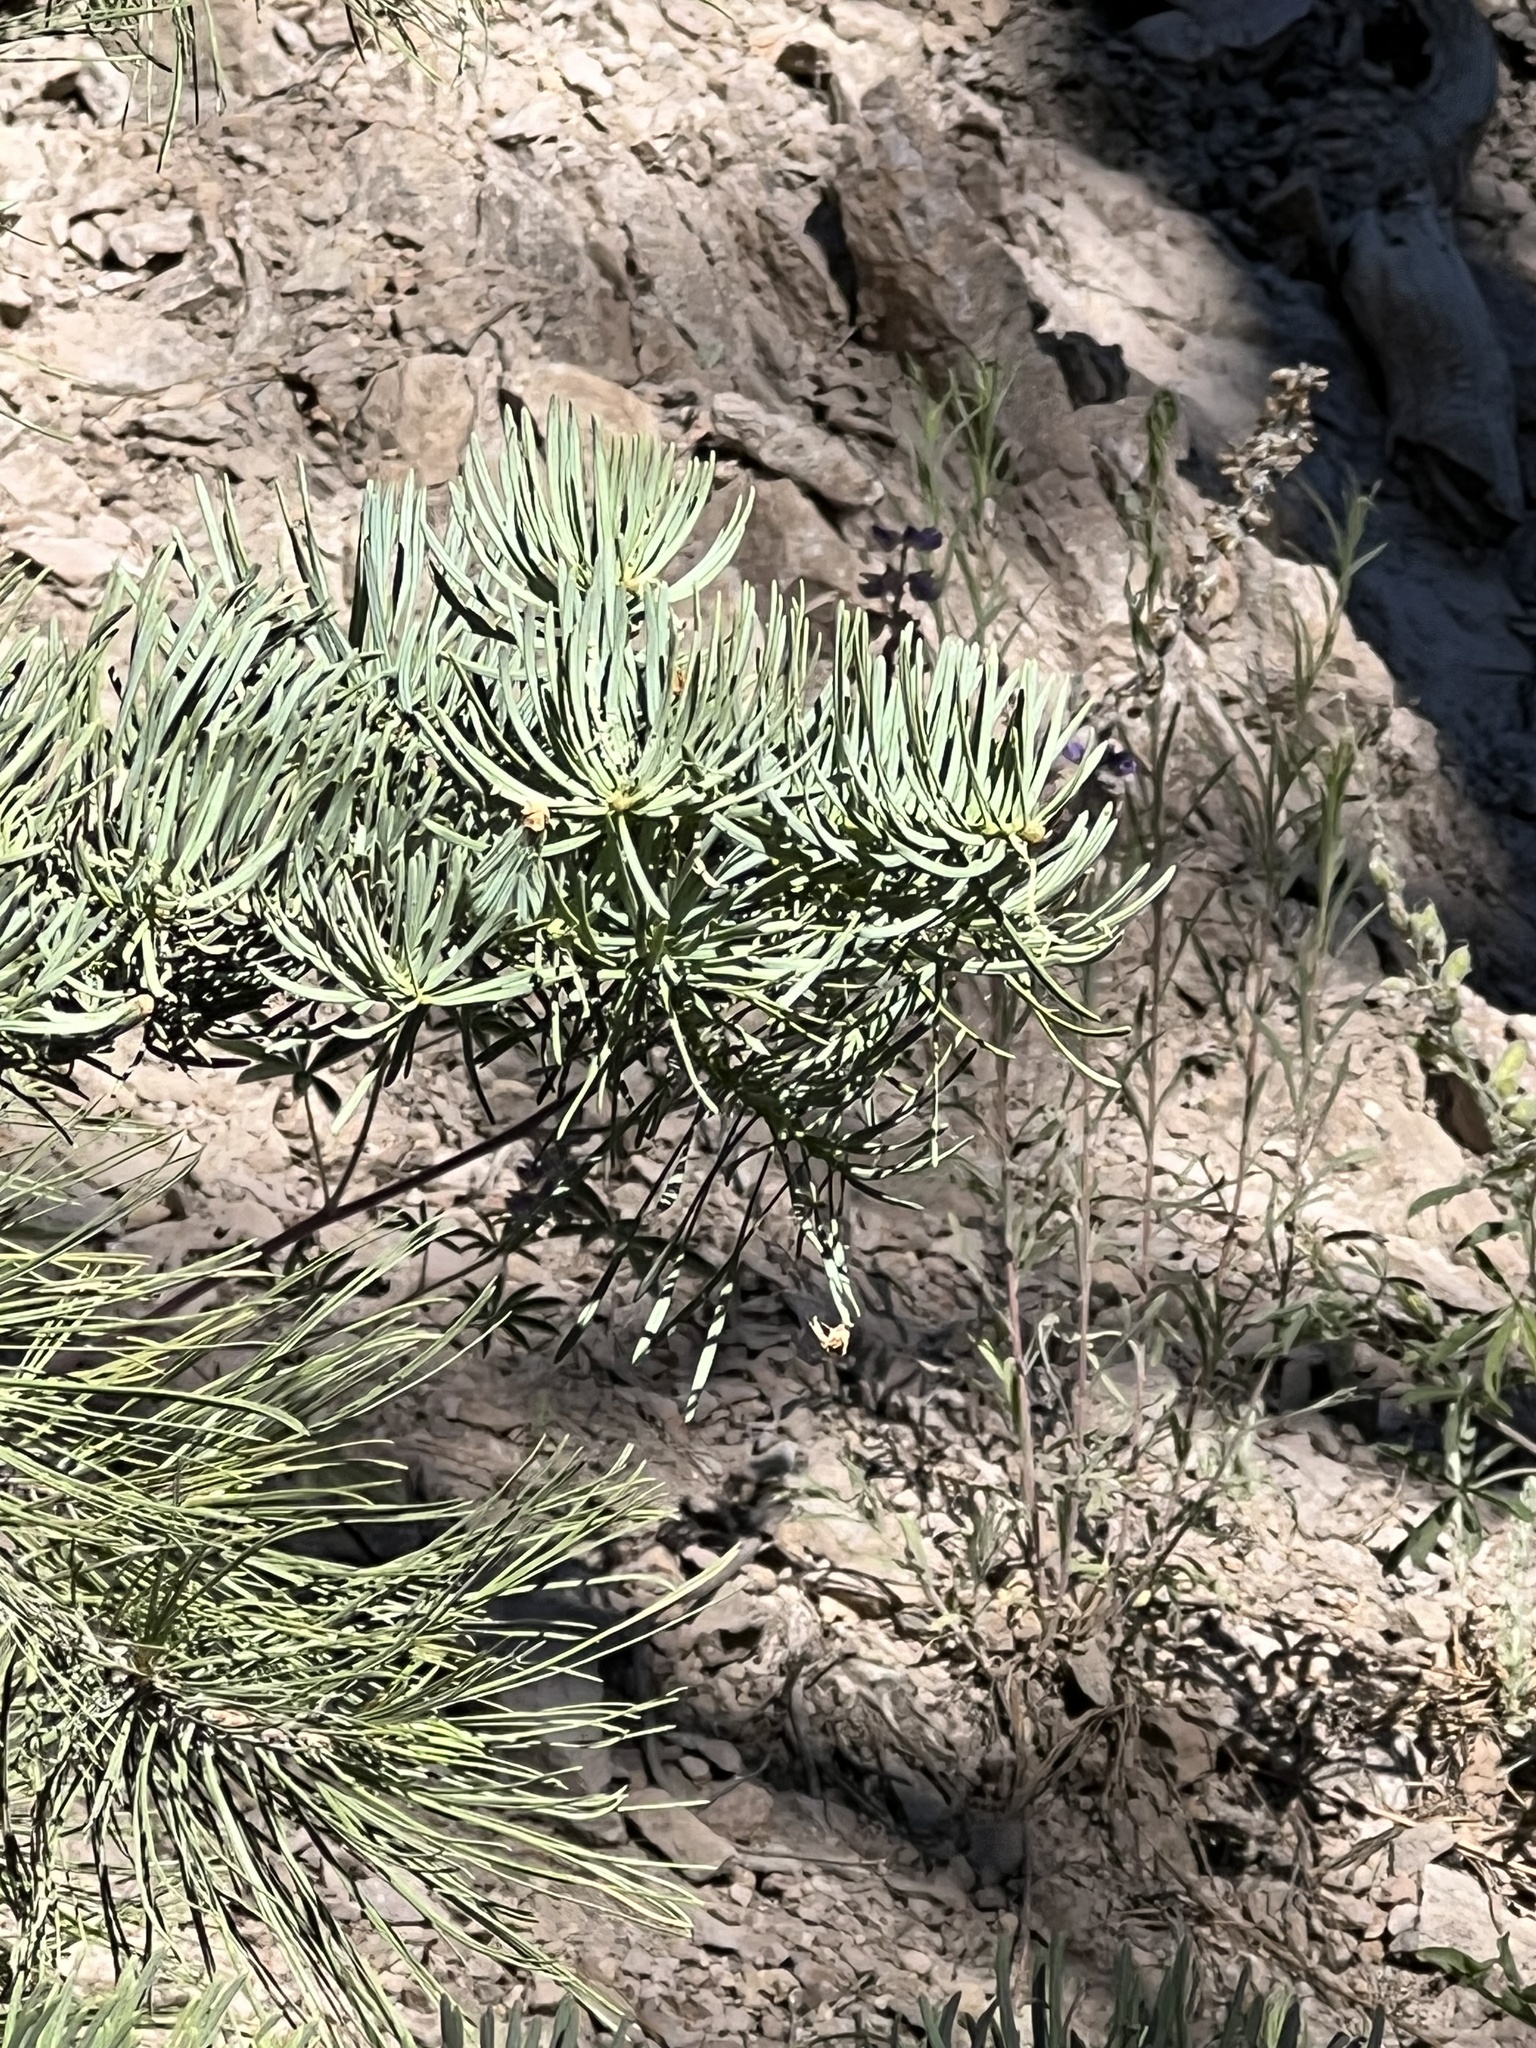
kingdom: Plantae
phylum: Tracheophyta
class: Pinopsida
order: Pinales
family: Pinaceae
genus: Abies
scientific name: Abies concolor
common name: Colorado fir
